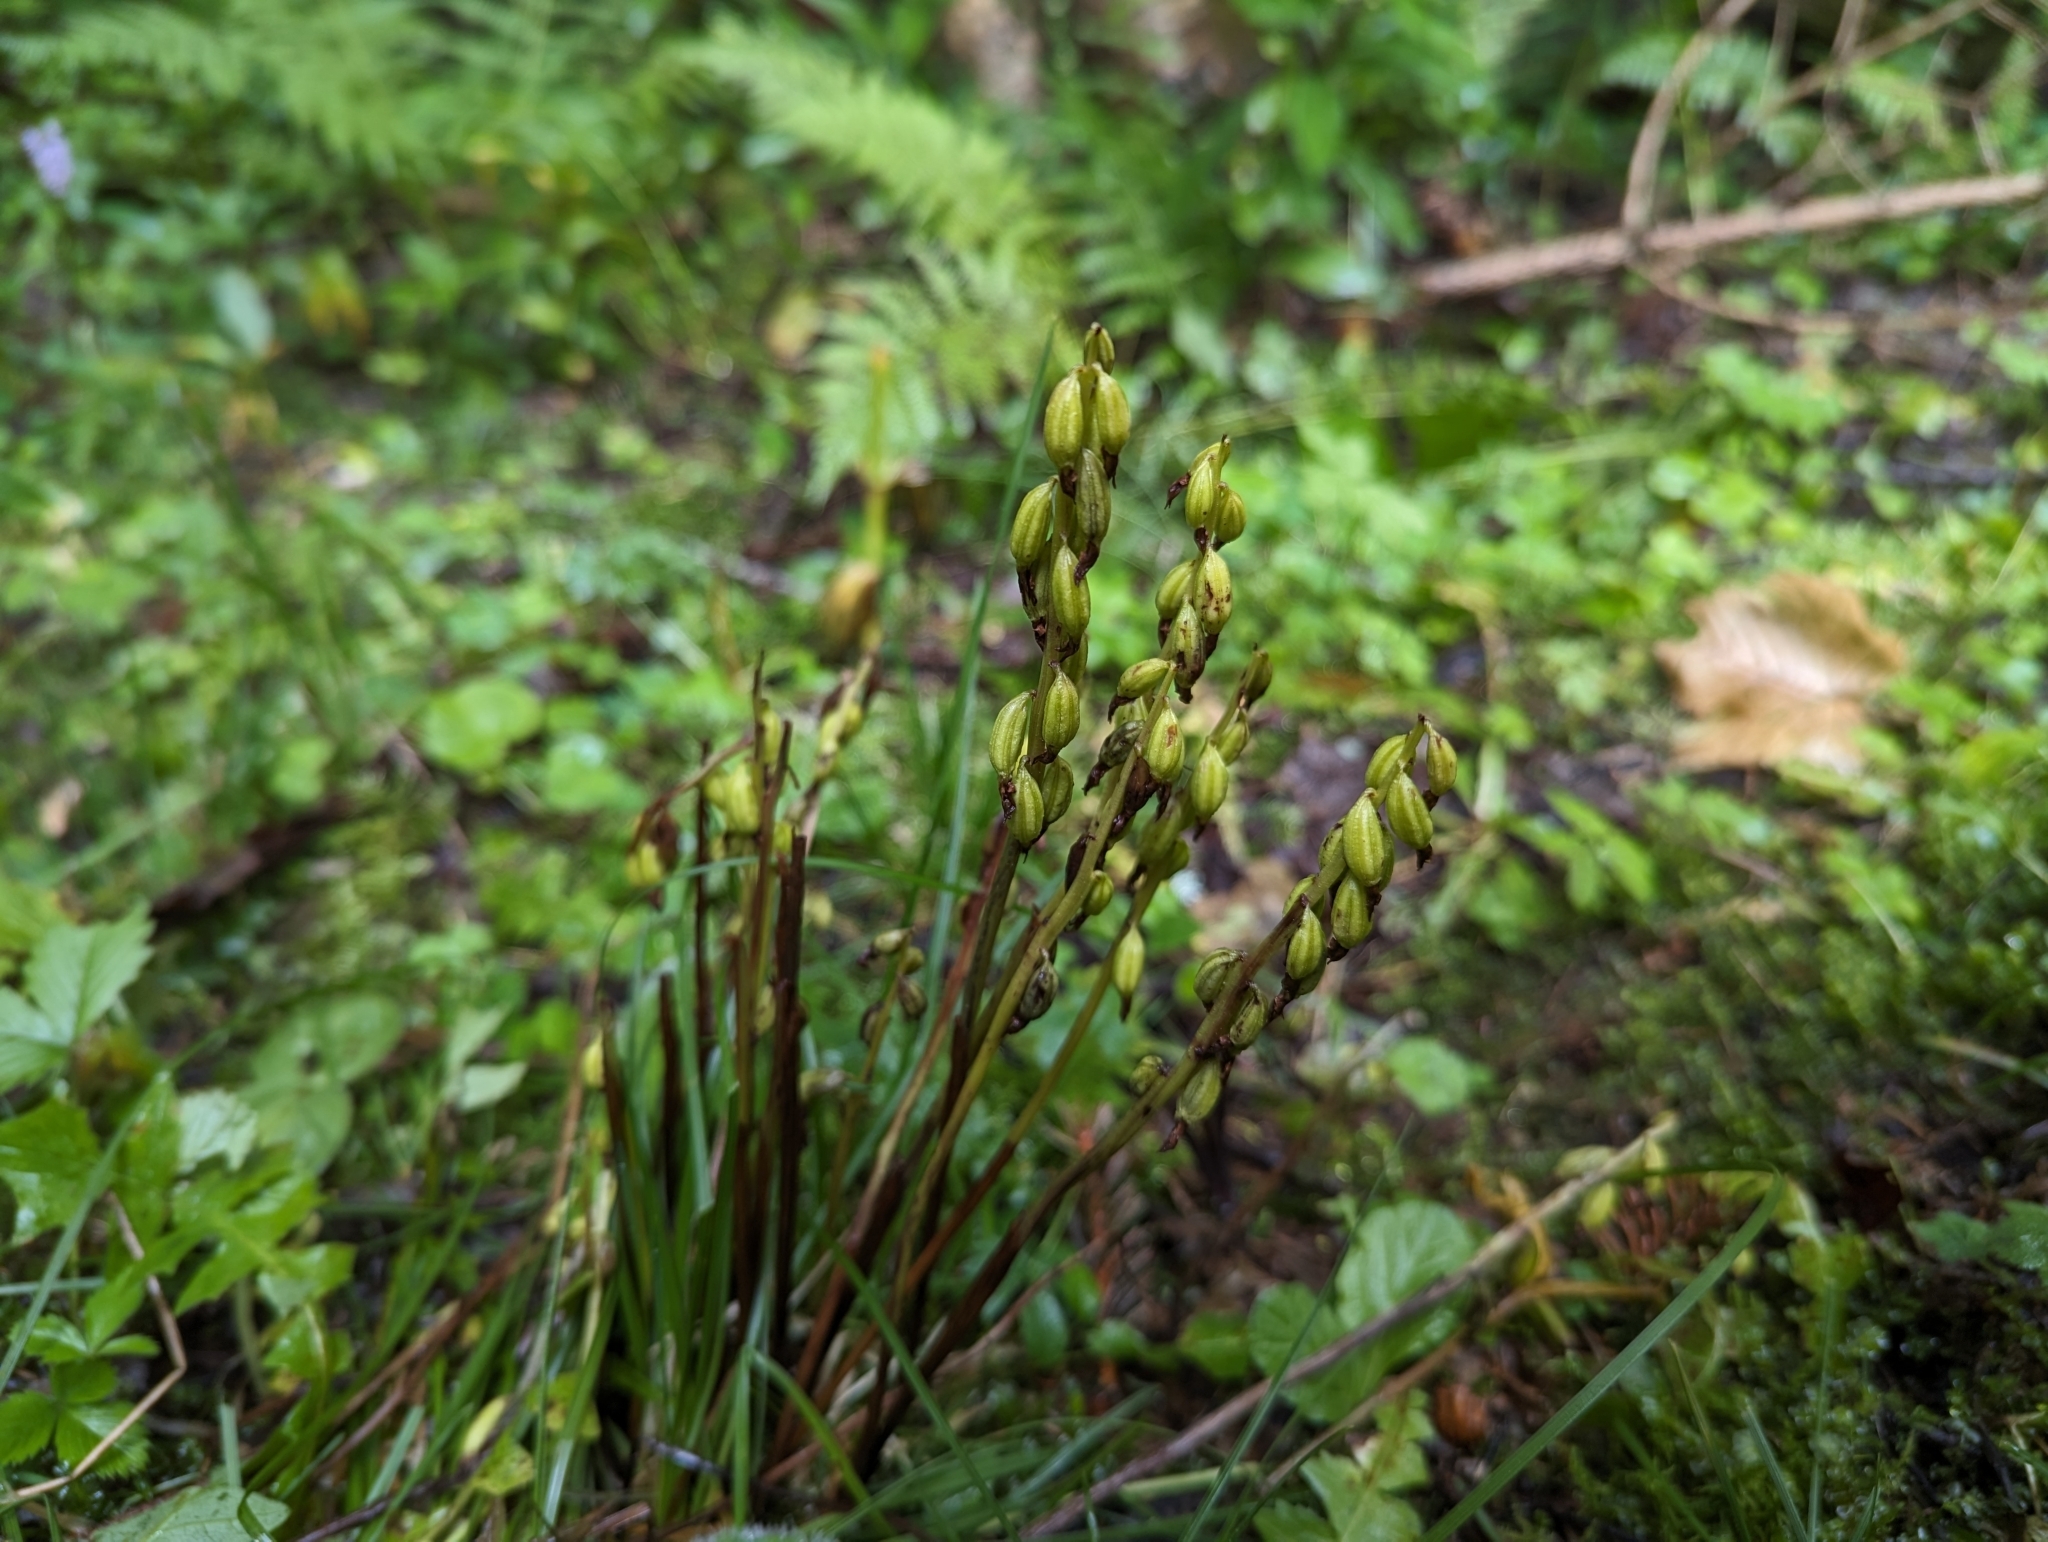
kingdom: Plantae
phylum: Tracheophyta
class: Liliopsida
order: Asparagales
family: Orchidaceae
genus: Corallorhiza
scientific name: Corallorhiza trifida
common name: Yellow coralroot
